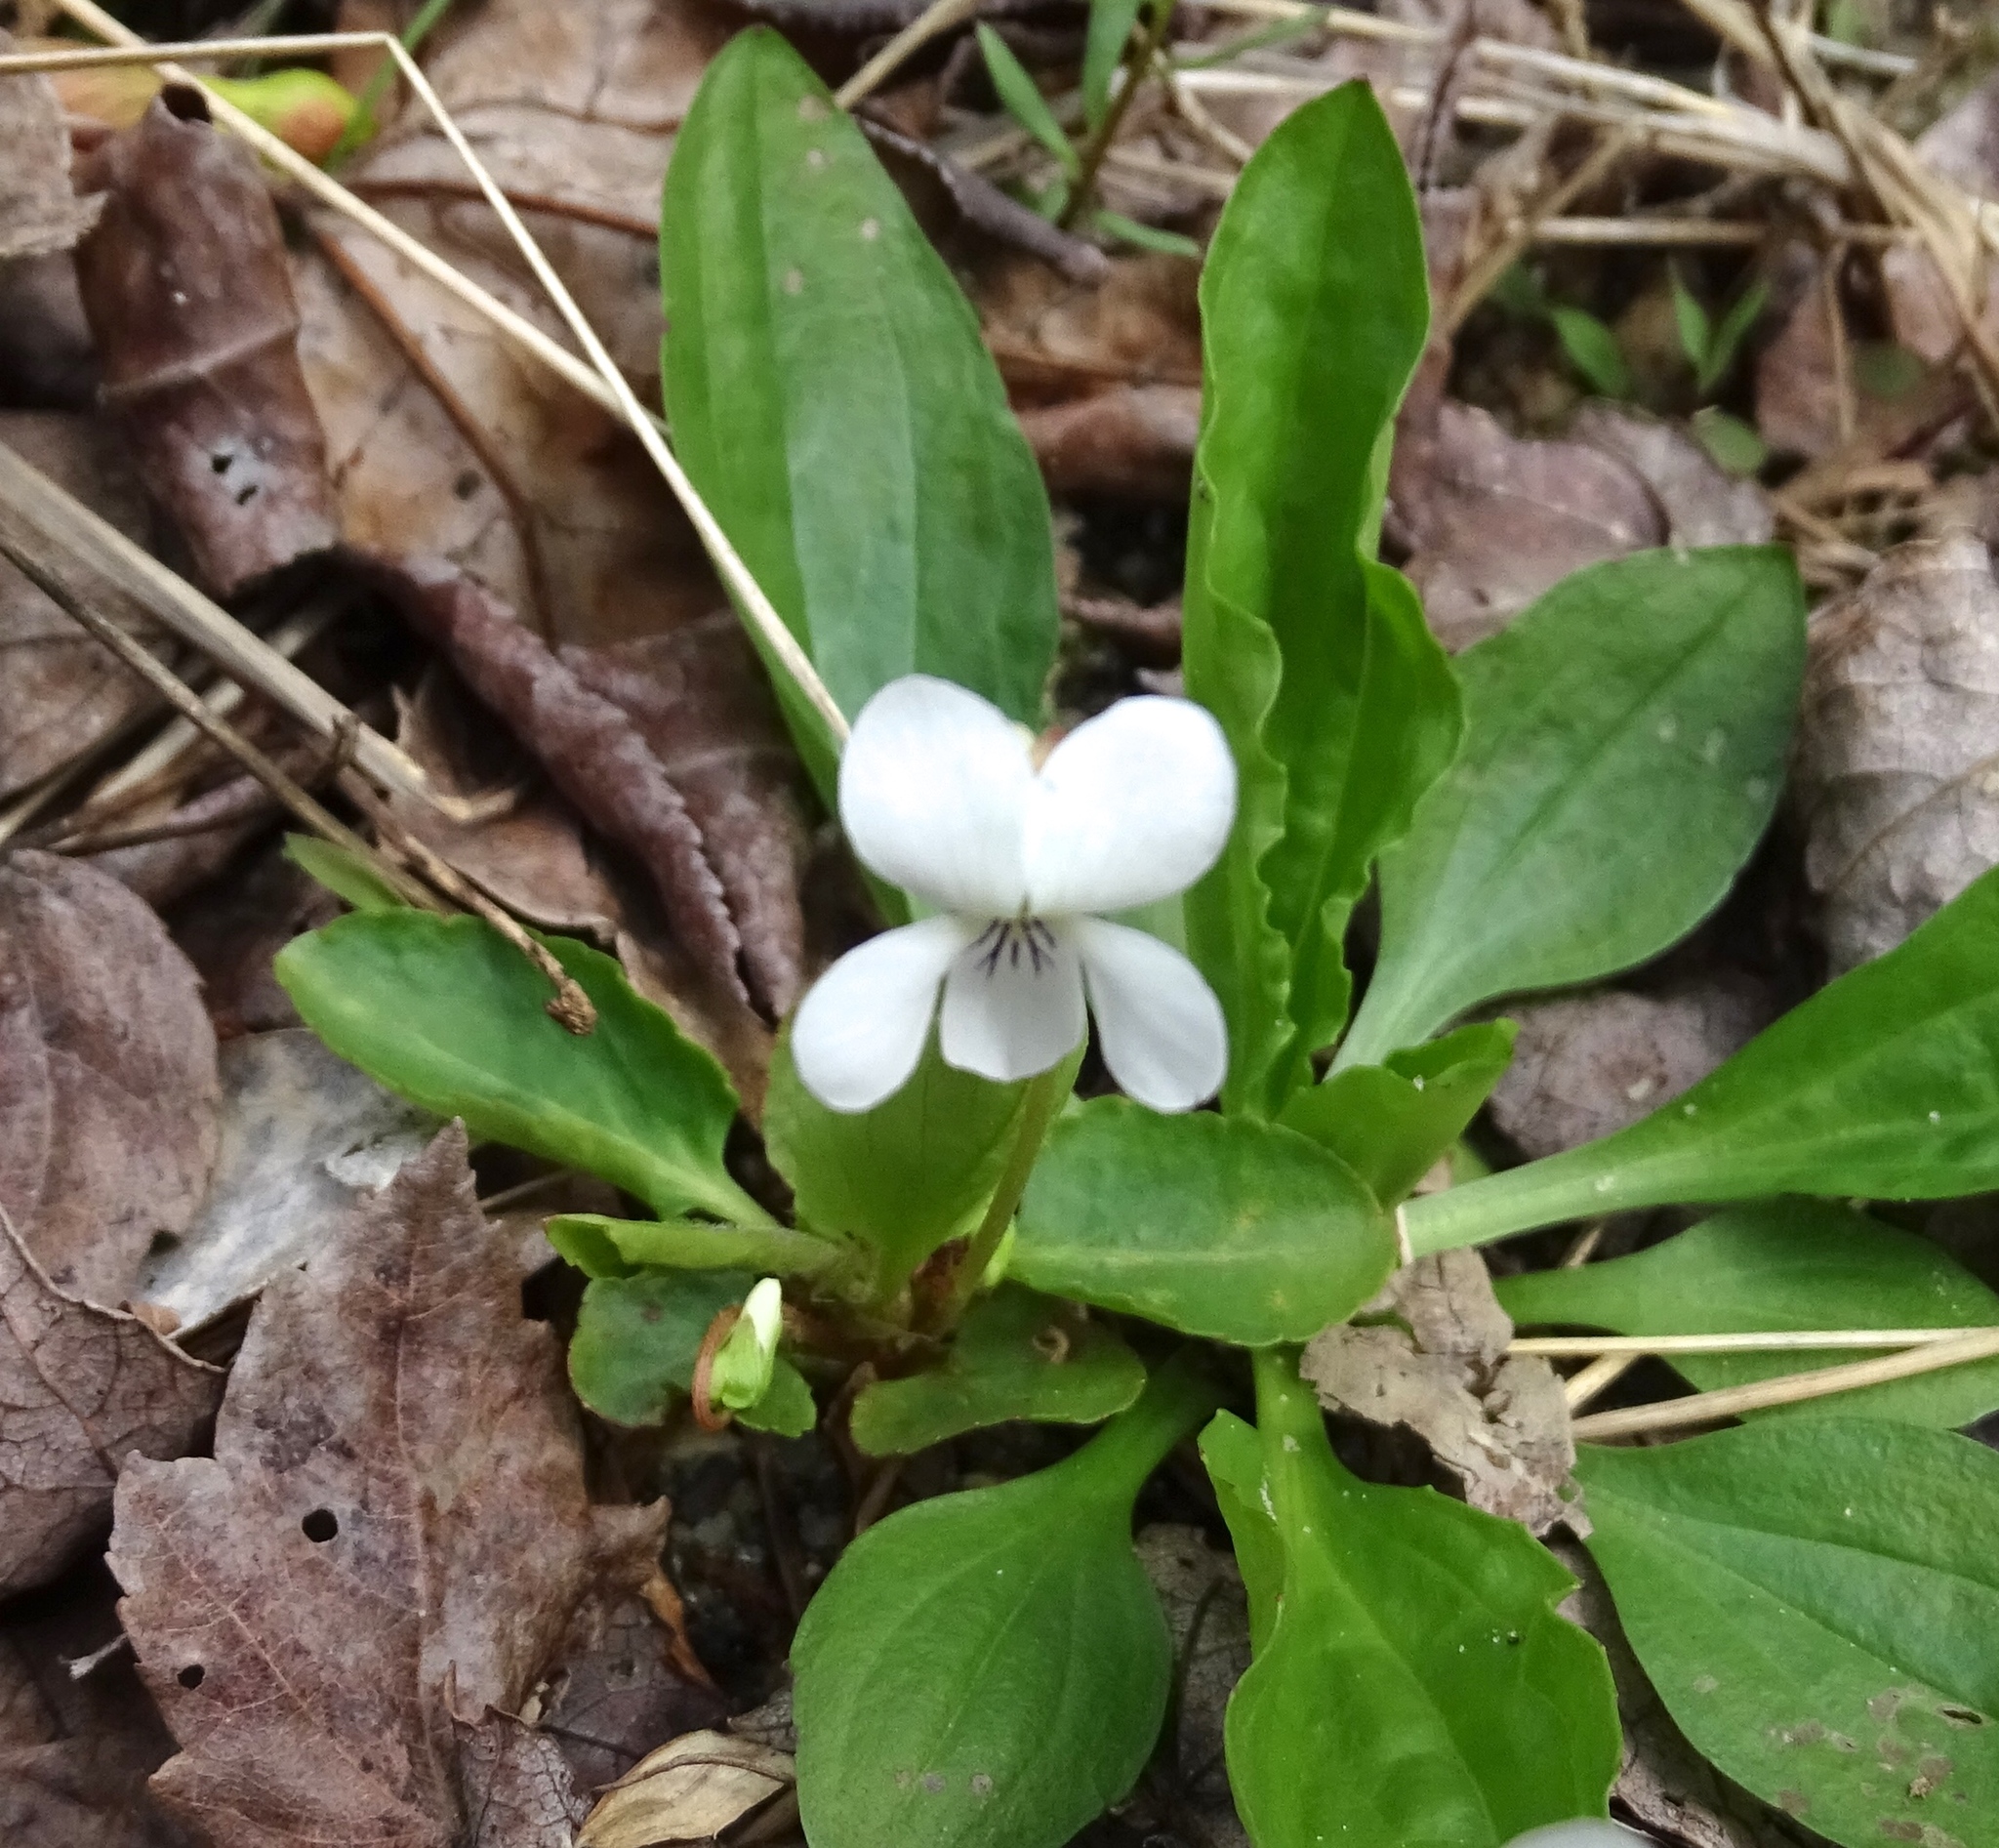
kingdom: Plantae
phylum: Tracheophyta
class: Magnoliopsida
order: Malpighiales
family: Violaceae
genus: Viola
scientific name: Viola primulifolia
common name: Primrose-leaf violet
